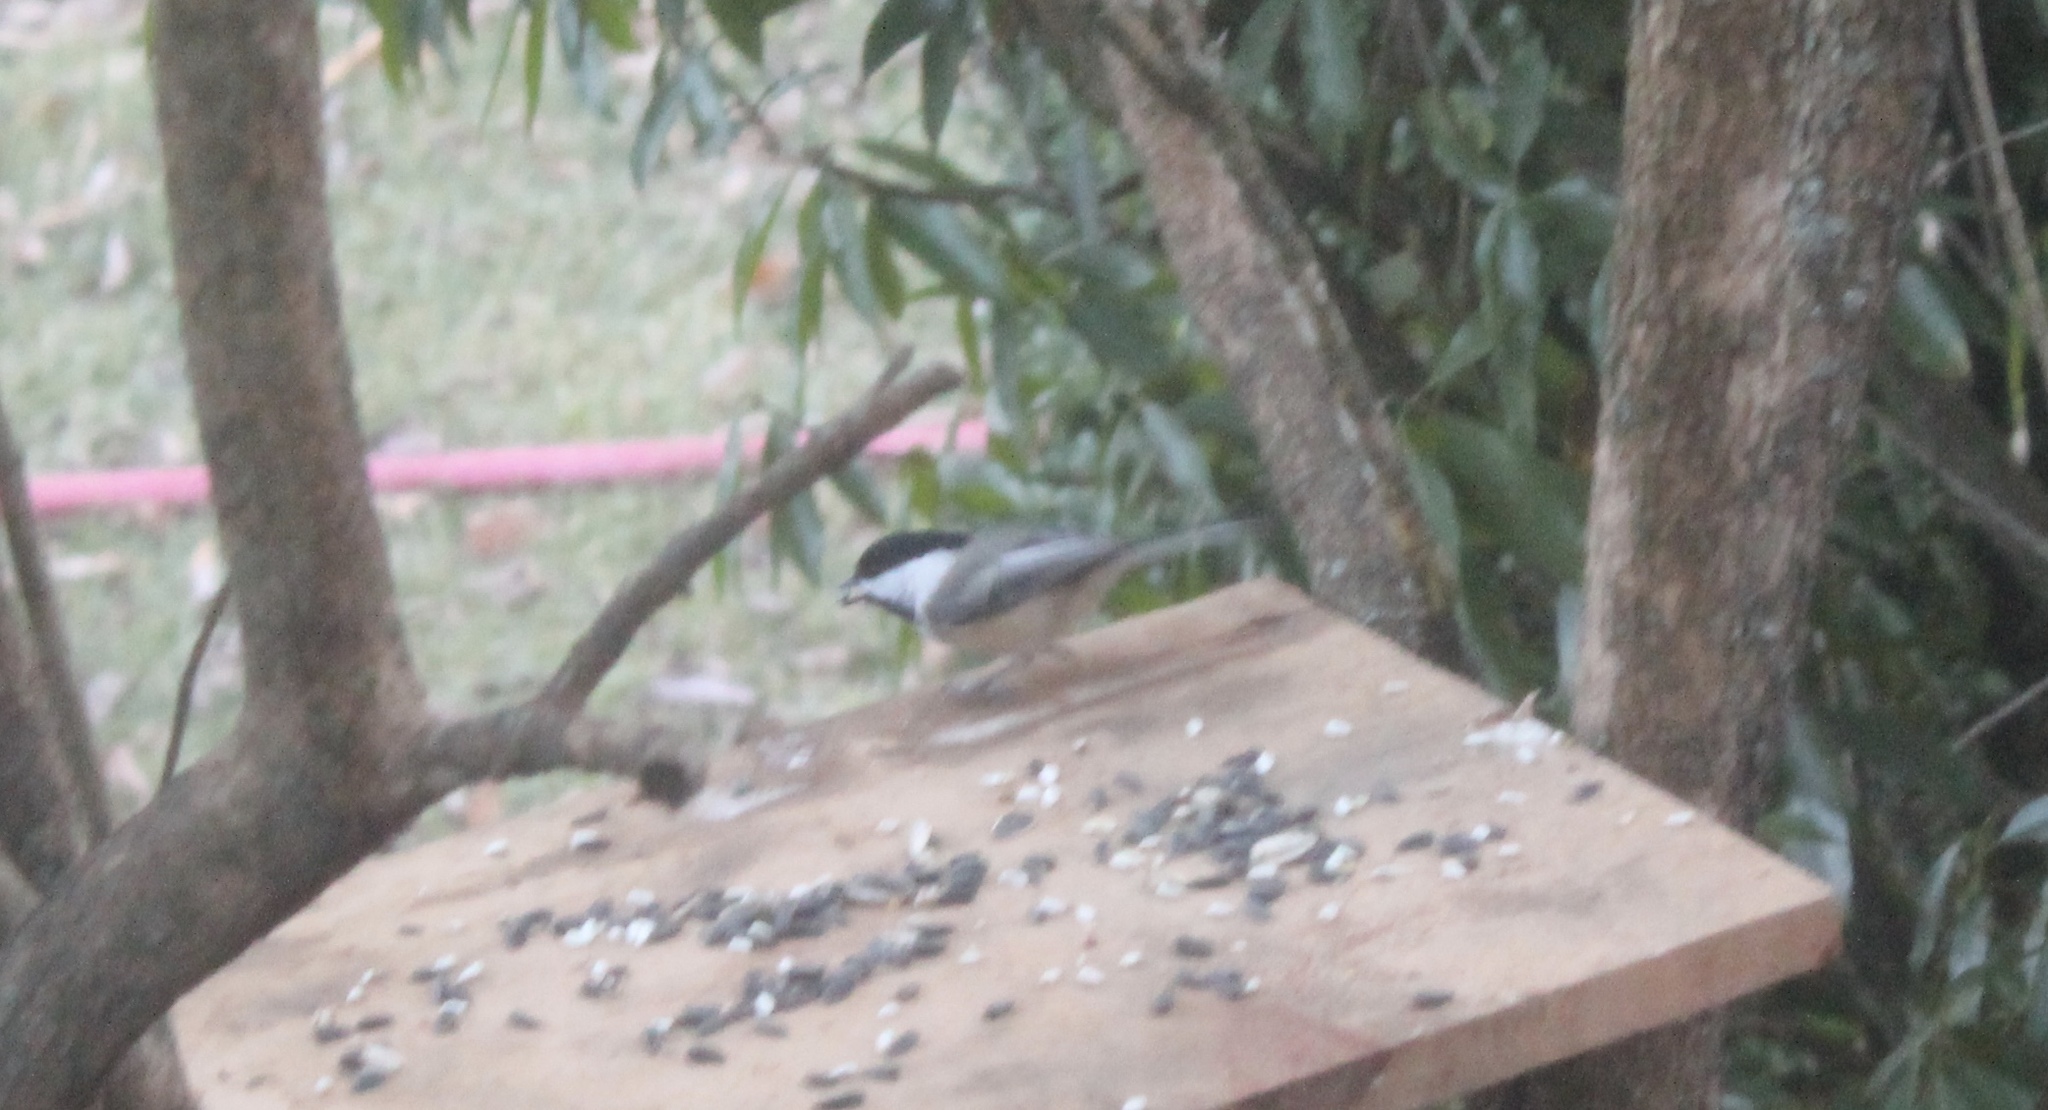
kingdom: Animalia
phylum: Chordata
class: Aves
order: Passeriformes
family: Paridae
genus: Poecile
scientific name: Poecile atricapillus
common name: Black-capped chickadee
